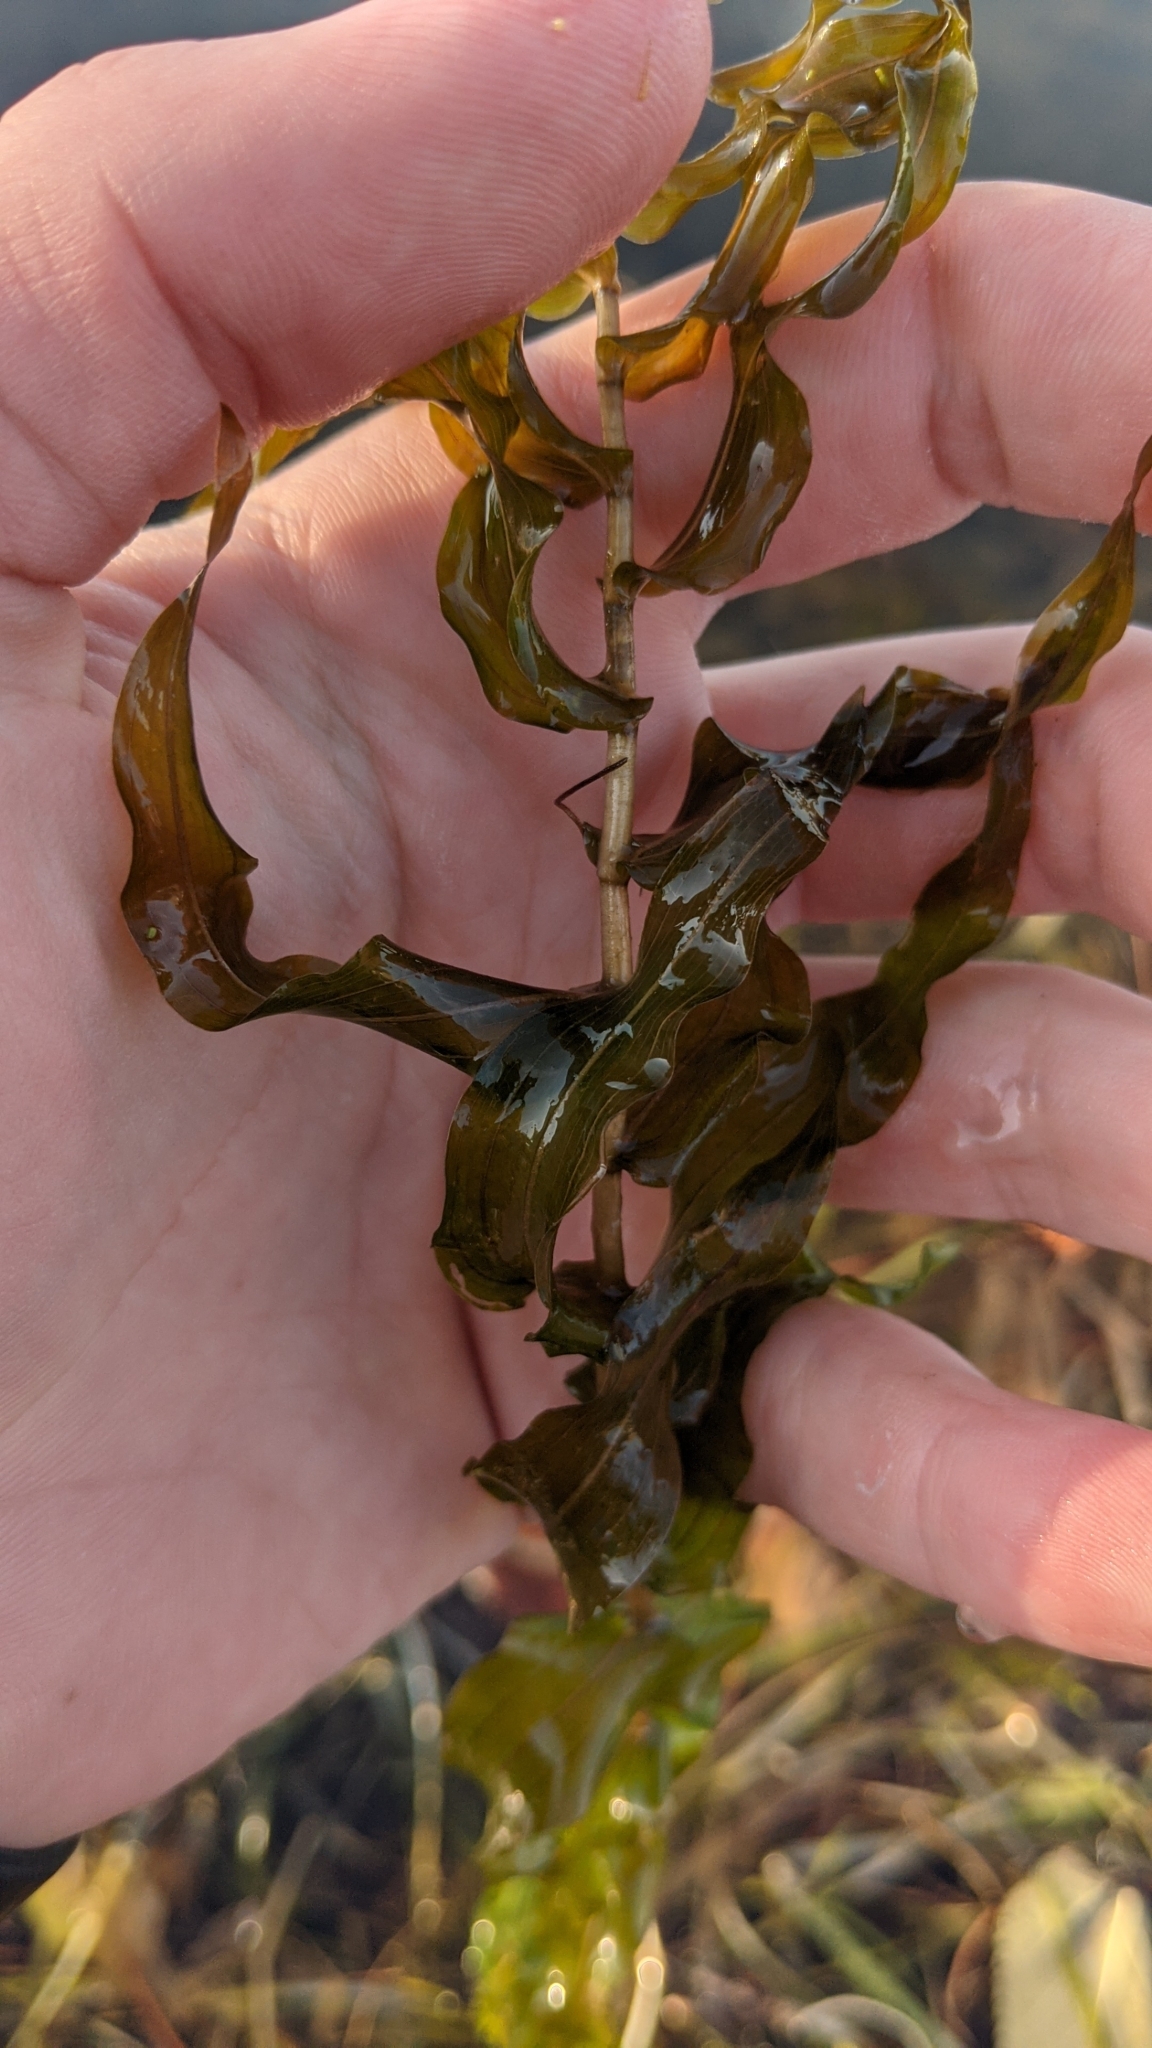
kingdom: Plantae
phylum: Tracheophyta
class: Liliopsida
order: Alismatales
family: Potamogetonaceae
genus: Potamogeton
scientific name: Potamogeton richardsonii
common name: Richardson's pondweed
